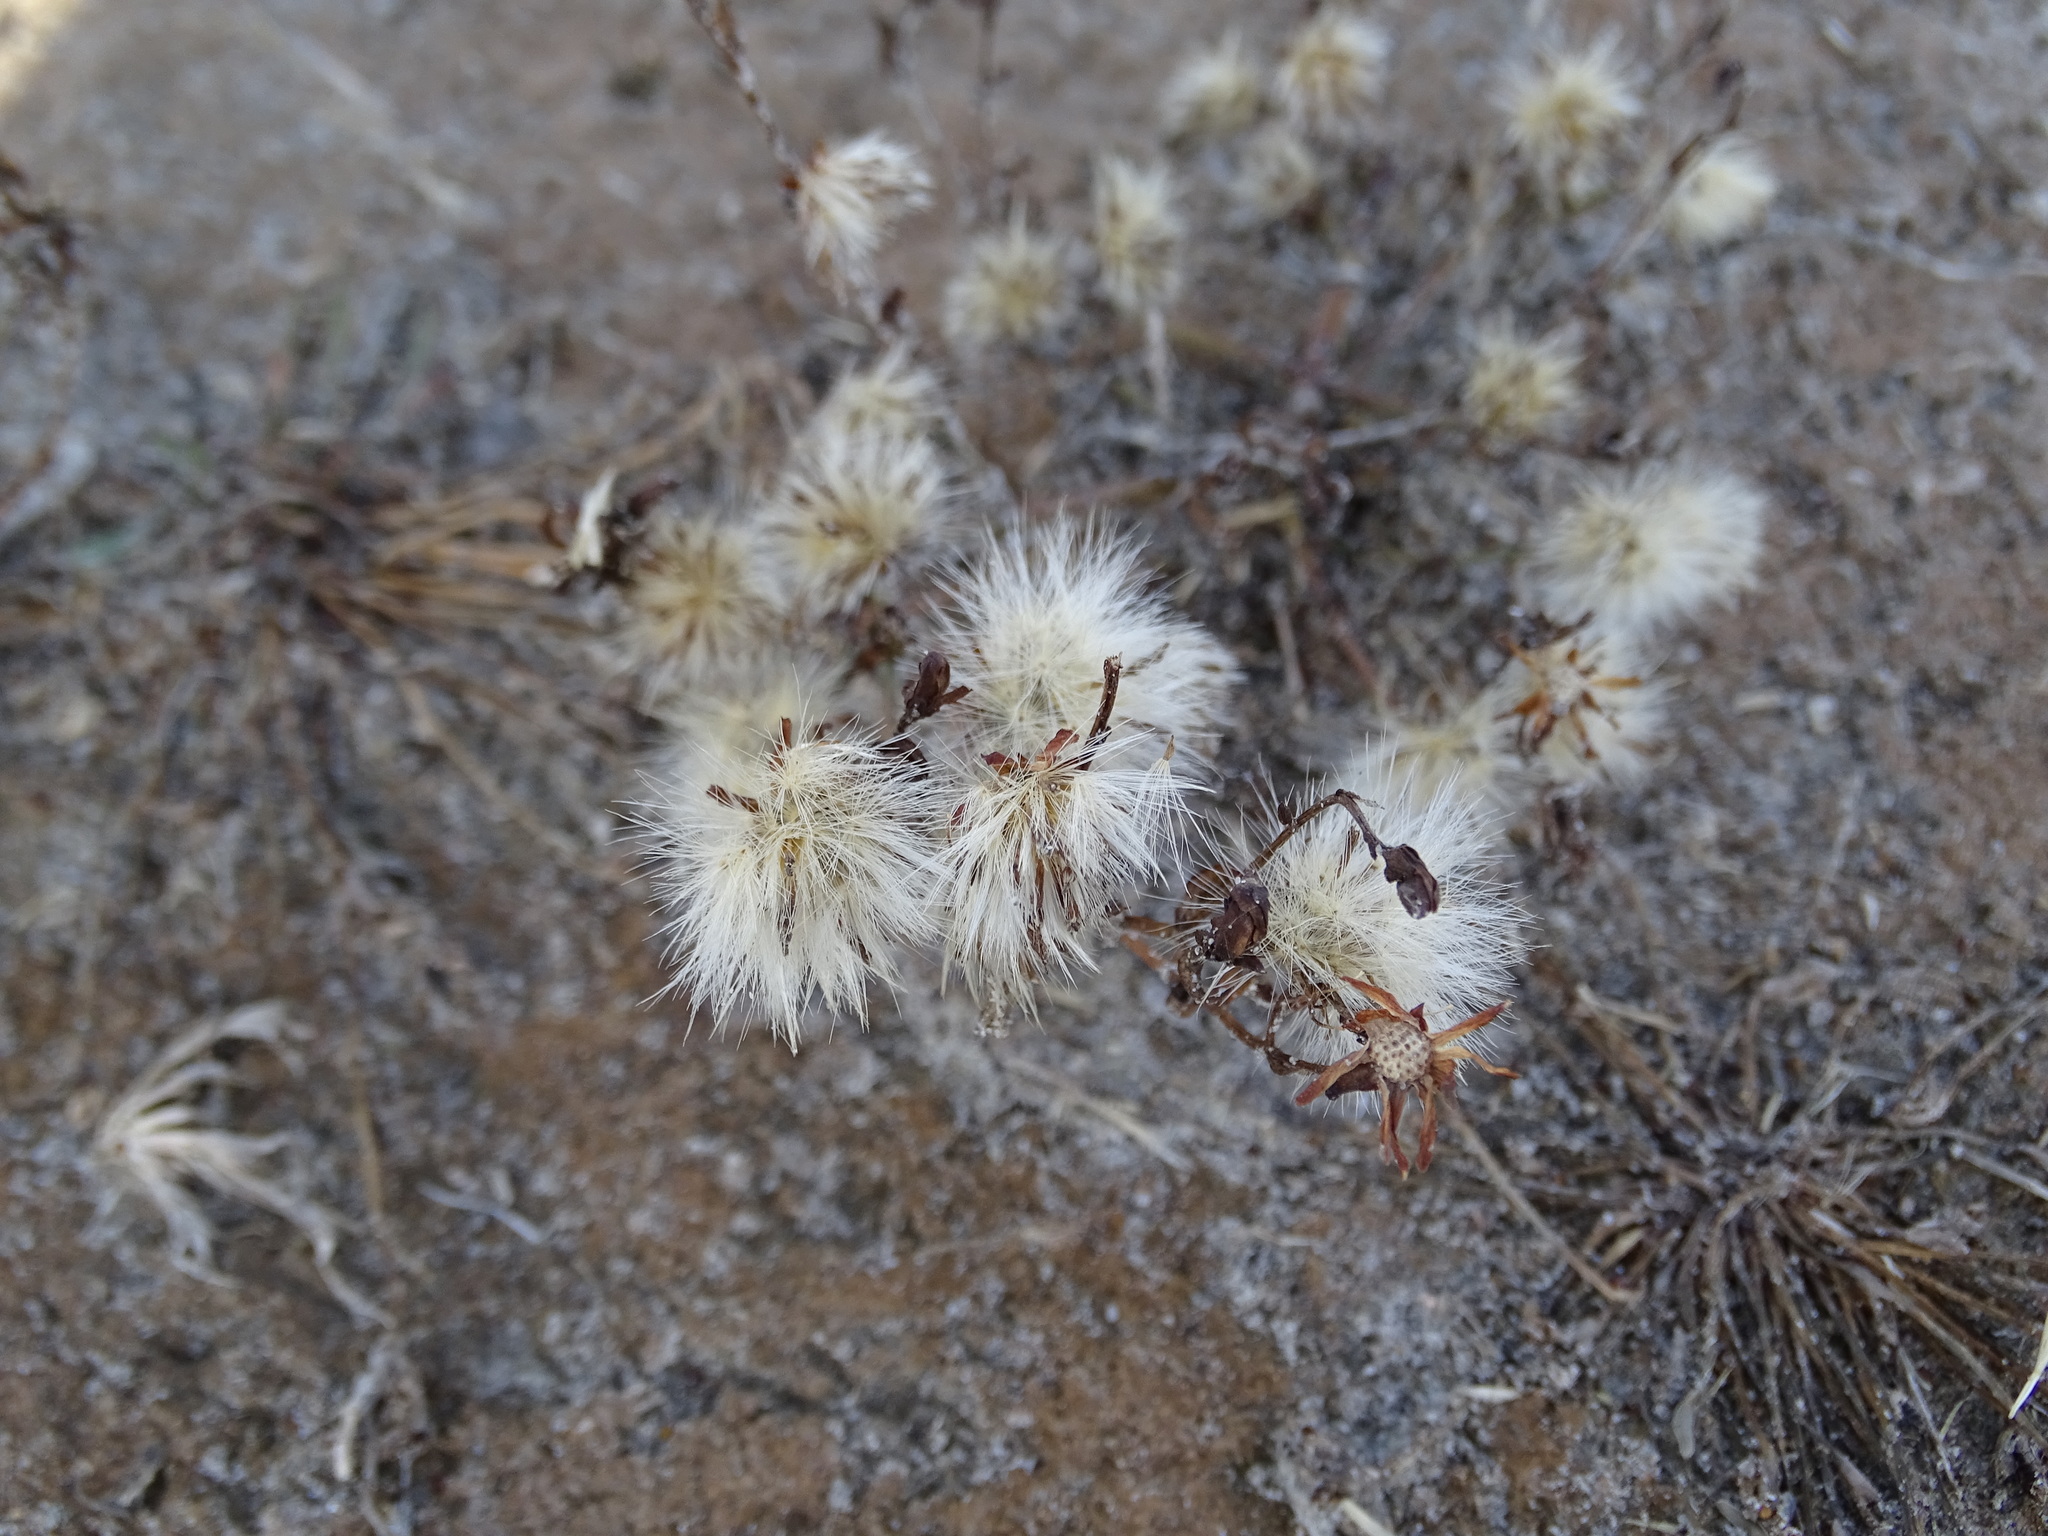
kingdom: Plantae
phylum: Tracheophyta
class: Magnoliopsida
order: Asterales
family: Asteraceae
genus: Tripolium
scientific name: Tripolium pannonicum
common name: Sea aster
